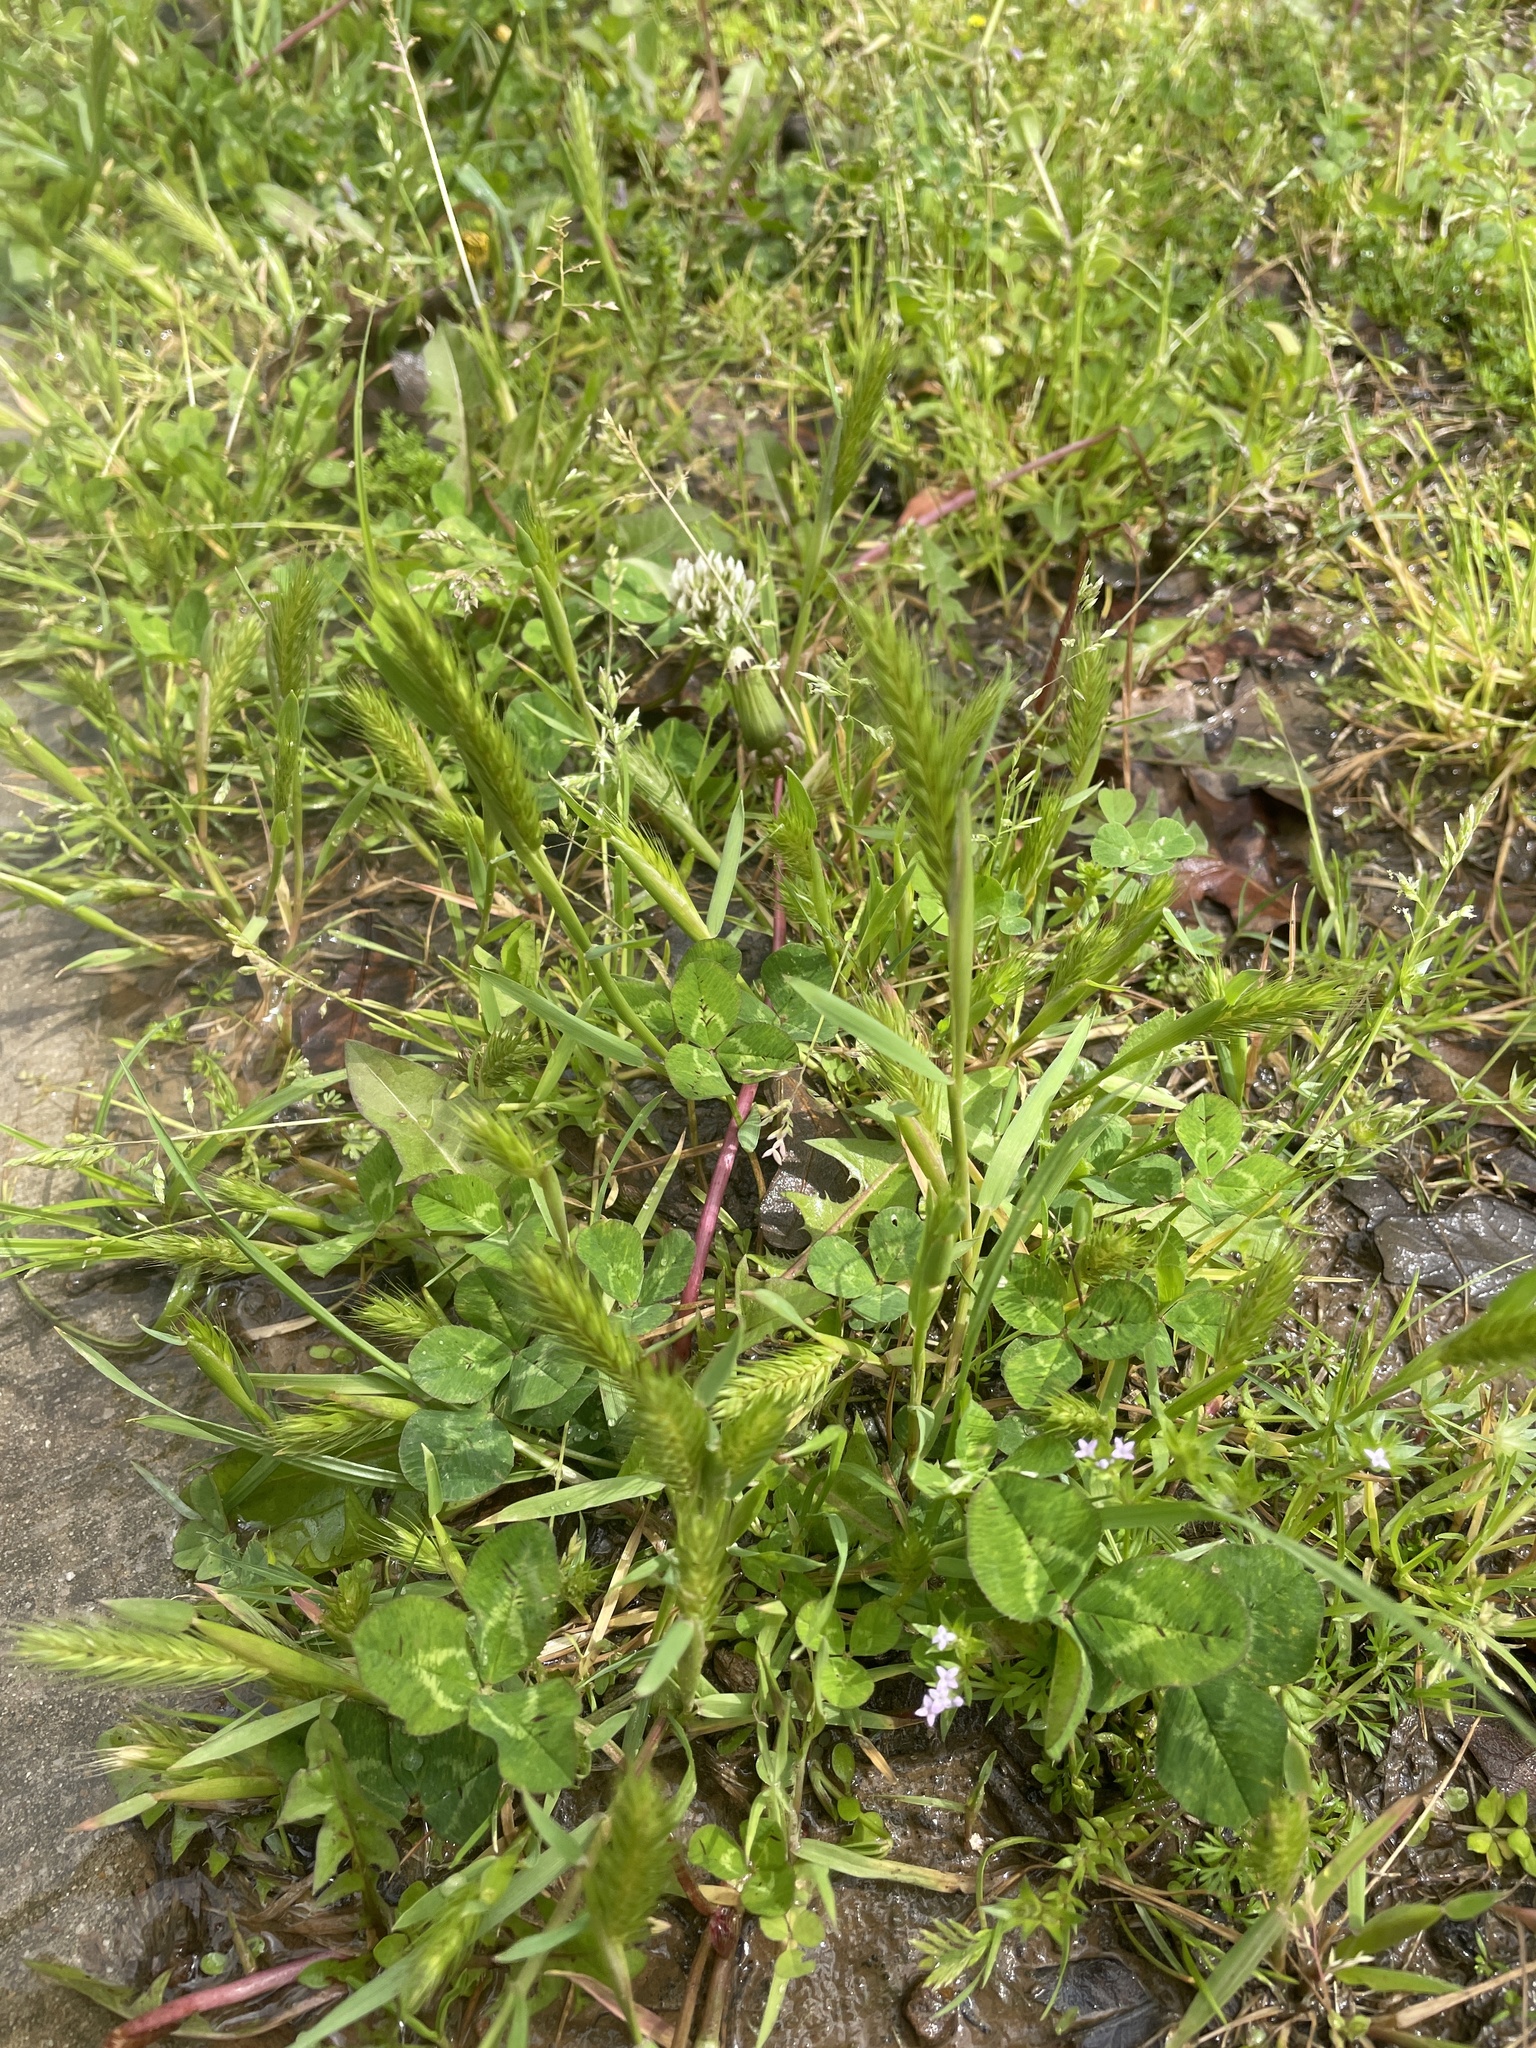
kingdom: Plantae
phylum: Tracheophyta
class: Liliopsida
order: Poales
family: Poaceae
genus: Hordeum
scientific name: Hordeum pusillum
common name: Little barley
